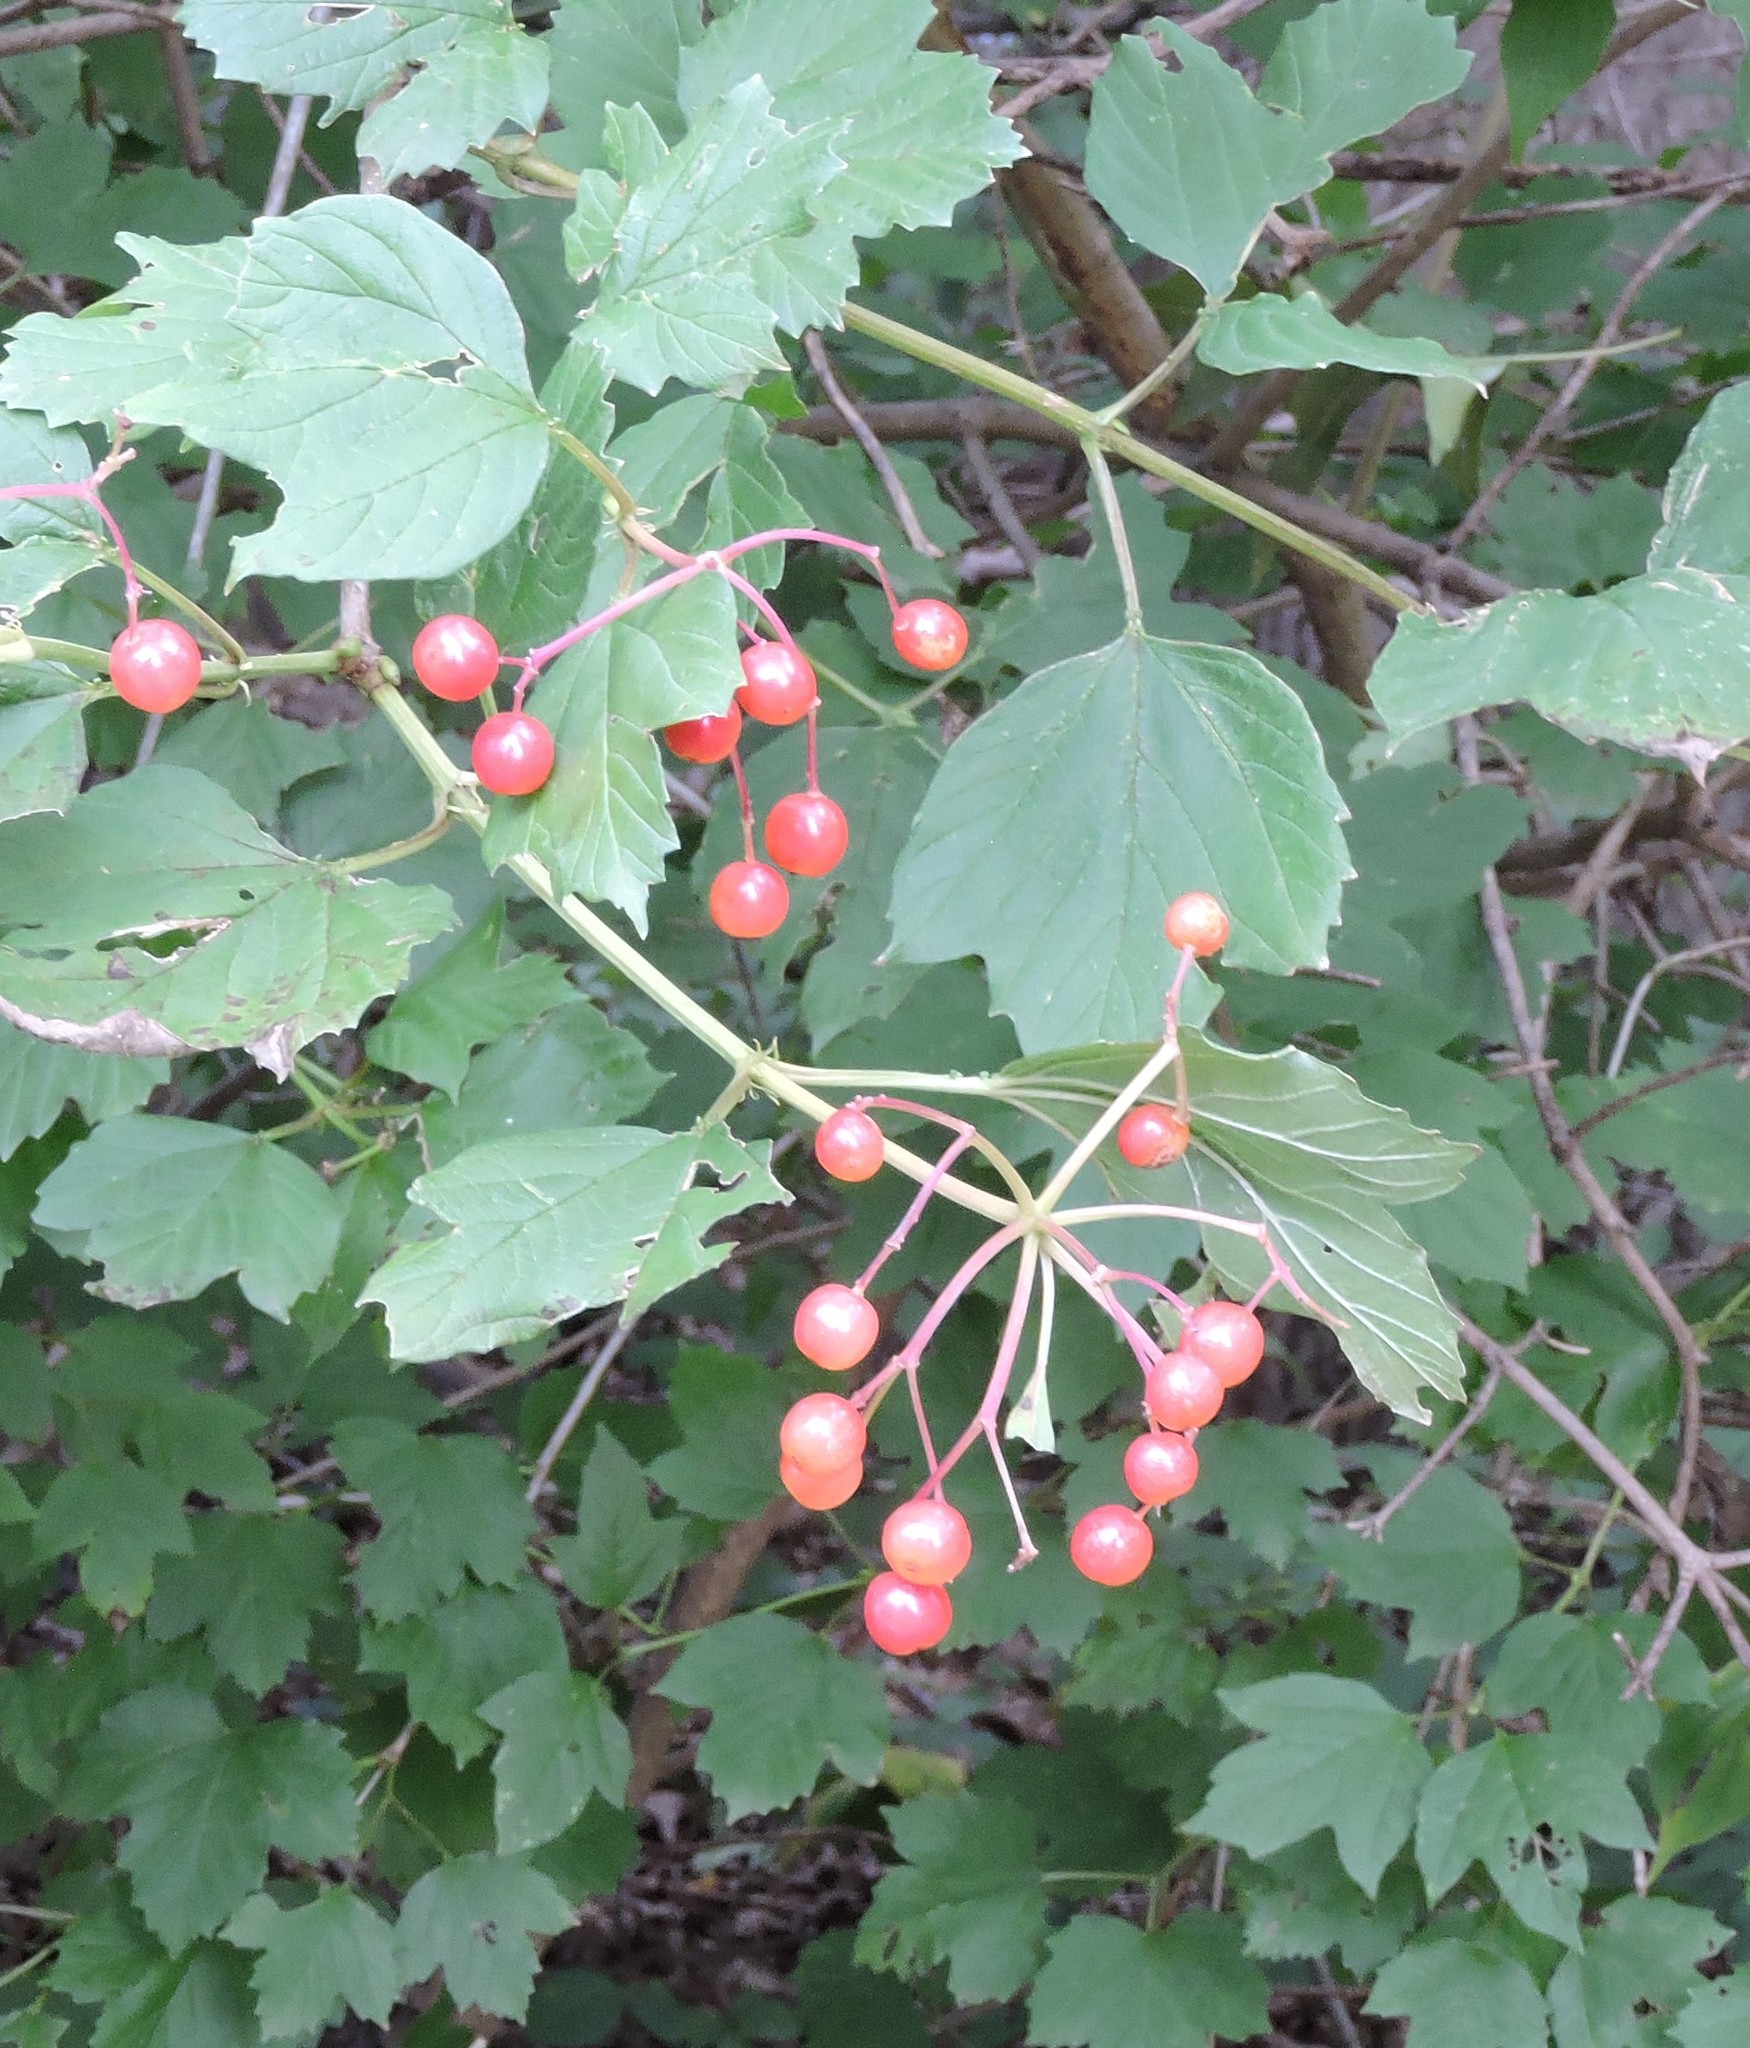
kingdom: Plantae
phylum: Tracheophyta
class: Magnoliopsida
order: Dipsacales
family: Viburnaceae
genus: Viburnum
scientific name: Viburnum opulus
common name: Guelder-rose
